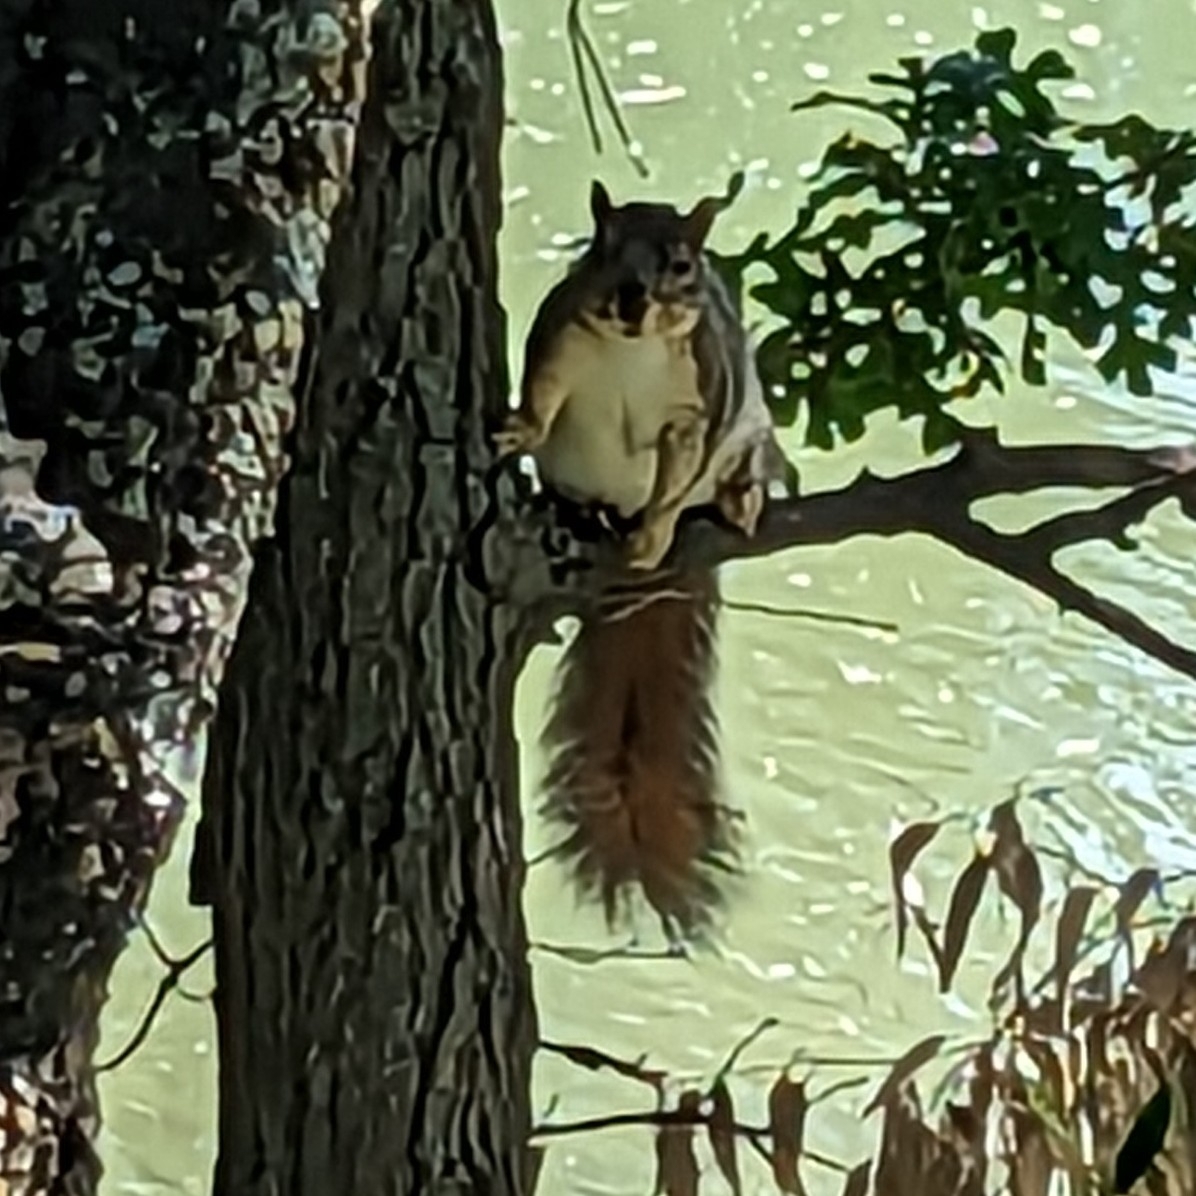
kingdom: Animalia
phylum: Chordata
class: Mammalia
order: Rodentia
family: Sciuridae
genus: Sciurus
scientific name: Sciurus niger
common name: Fox squirrel
